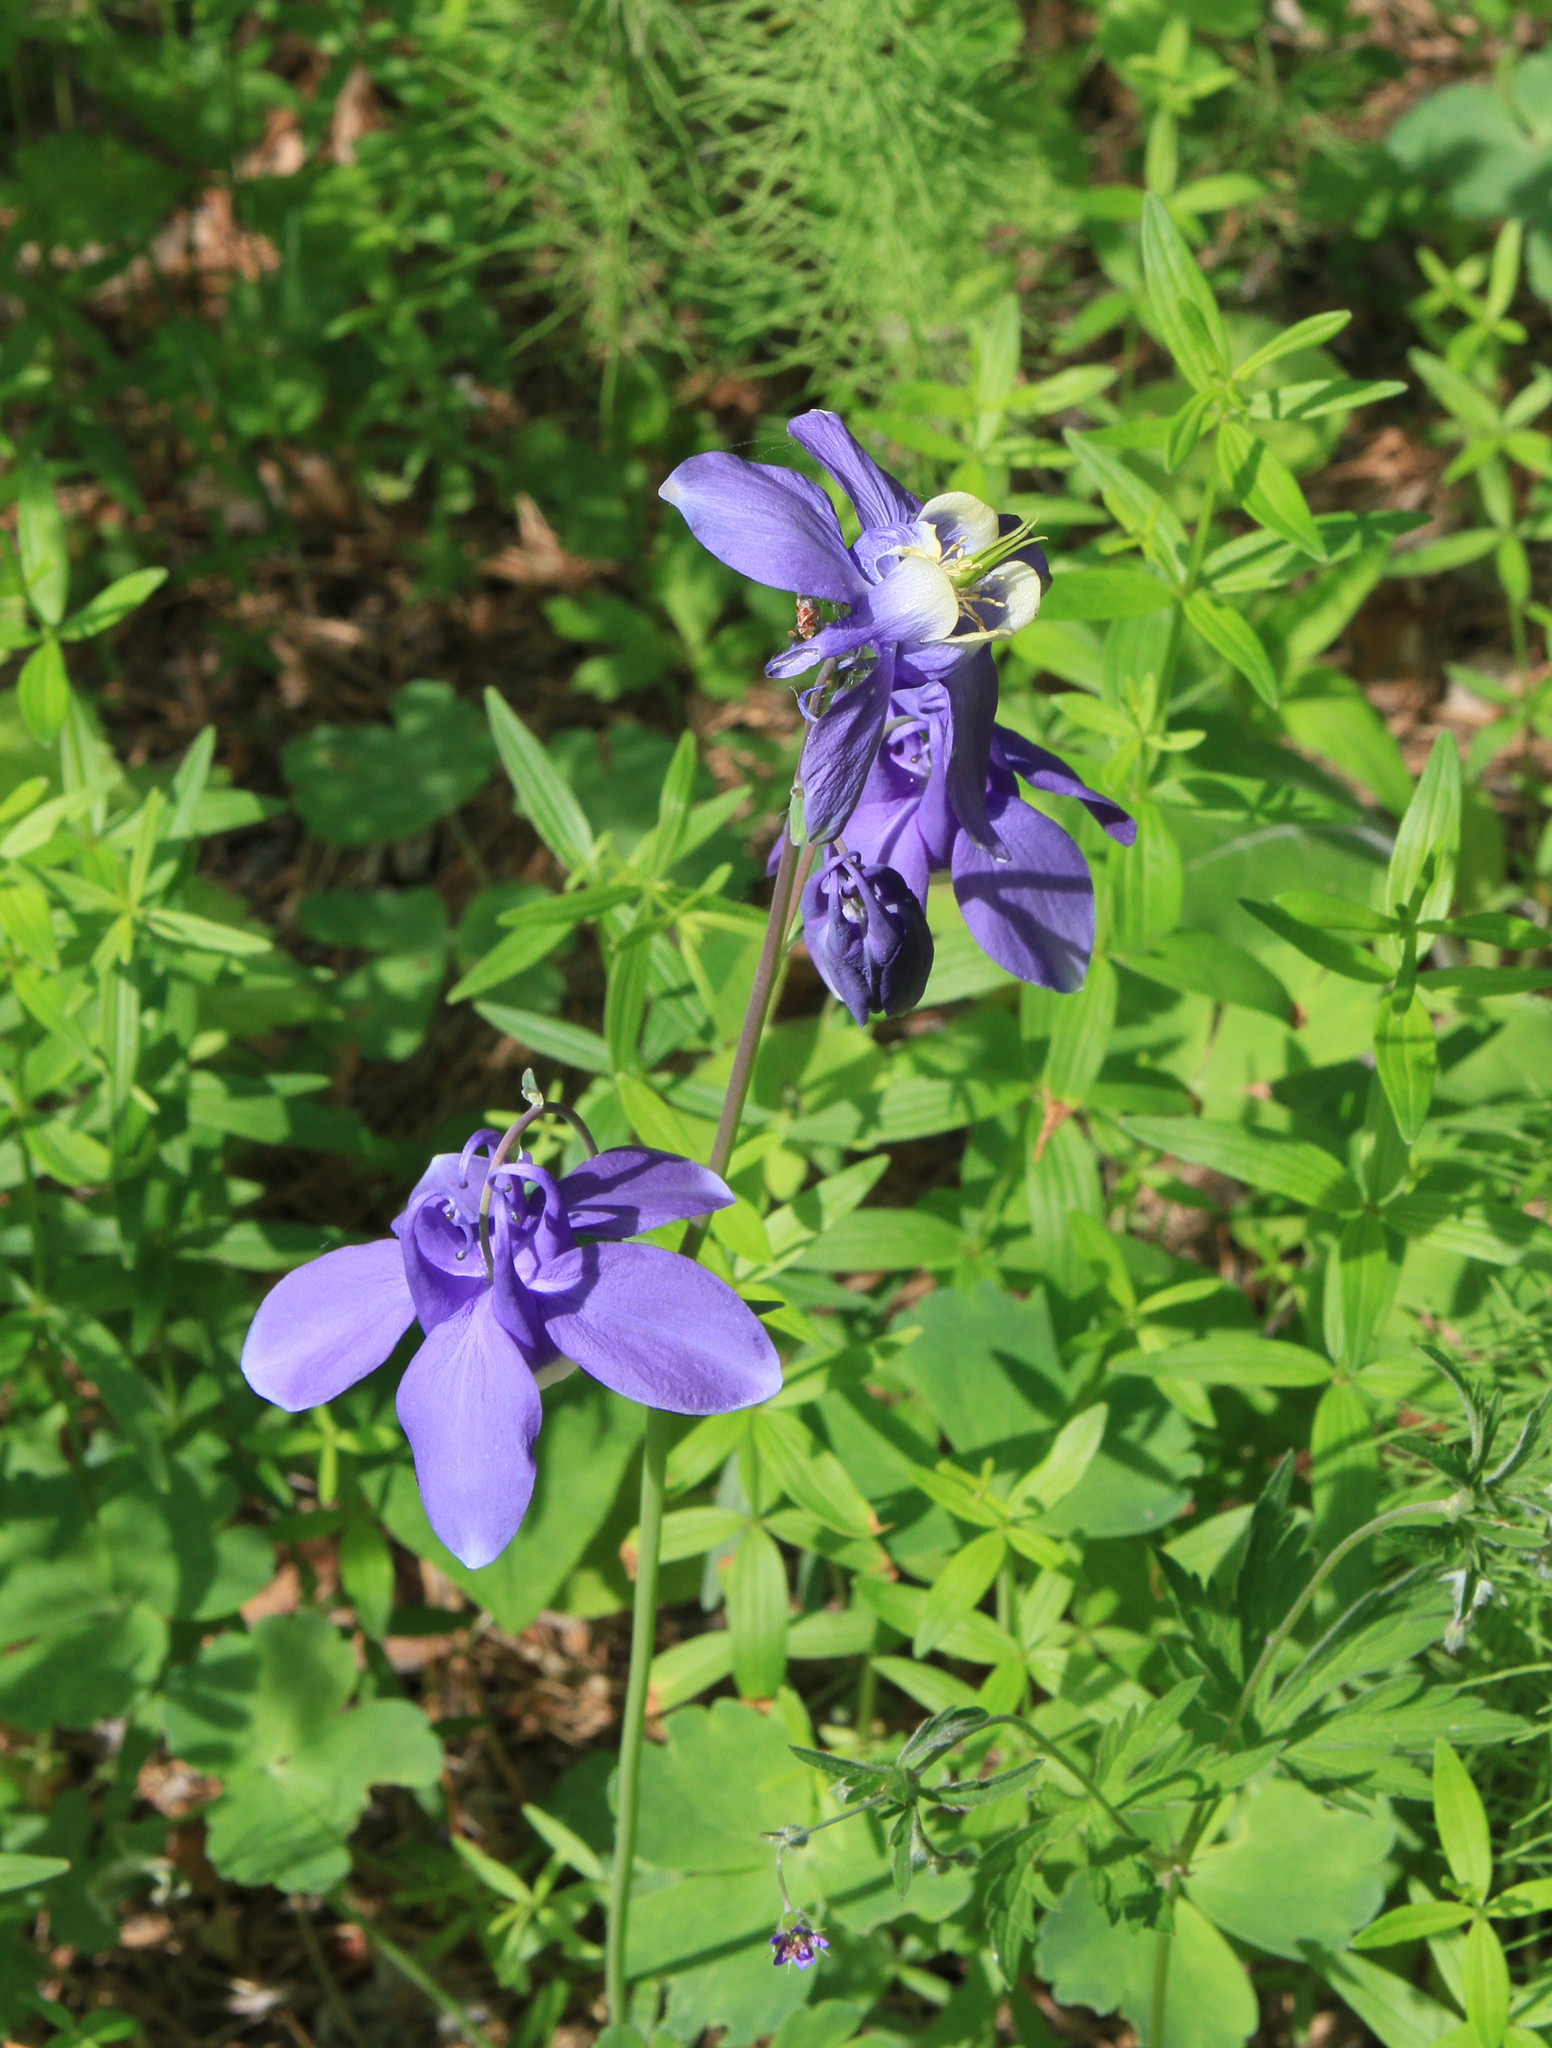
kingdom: Plantae
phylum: Tracheophyta
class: Magnoliopsida
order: Ranunculales
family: Ranunculaceae
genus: Aquilegia
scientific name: Aquilegia sibirica
